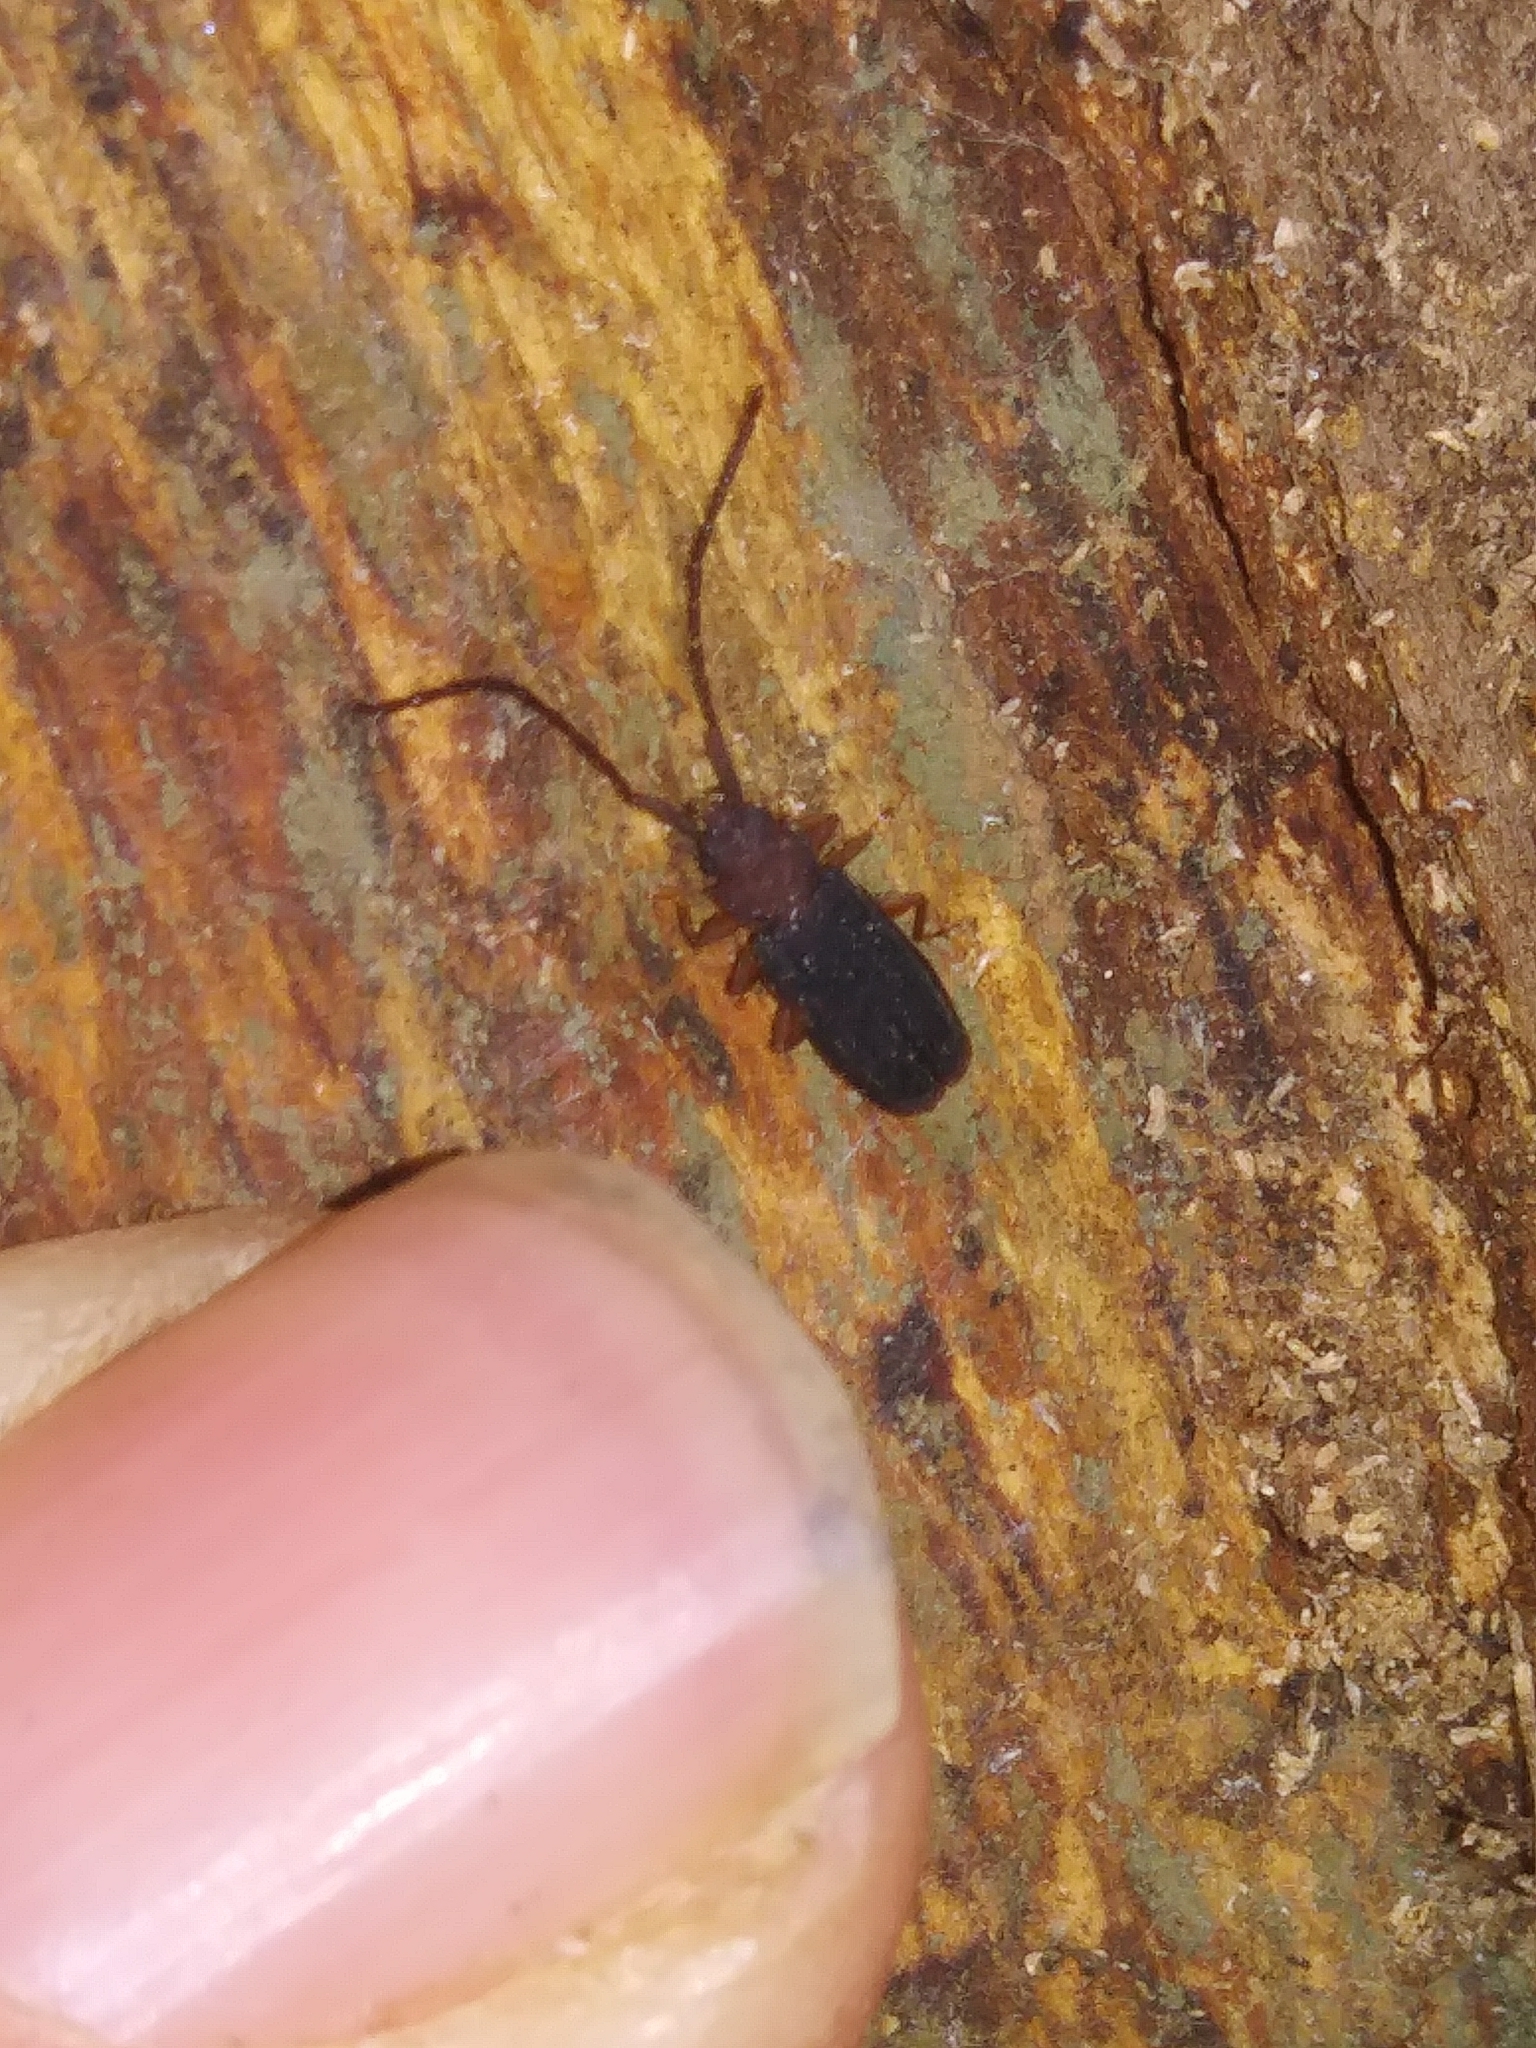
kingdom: Animalia
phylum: Arthropoda
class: Insecta
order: Coleoptera
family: Silvanidae
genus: Uleiota
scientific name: Uleiota dubia
